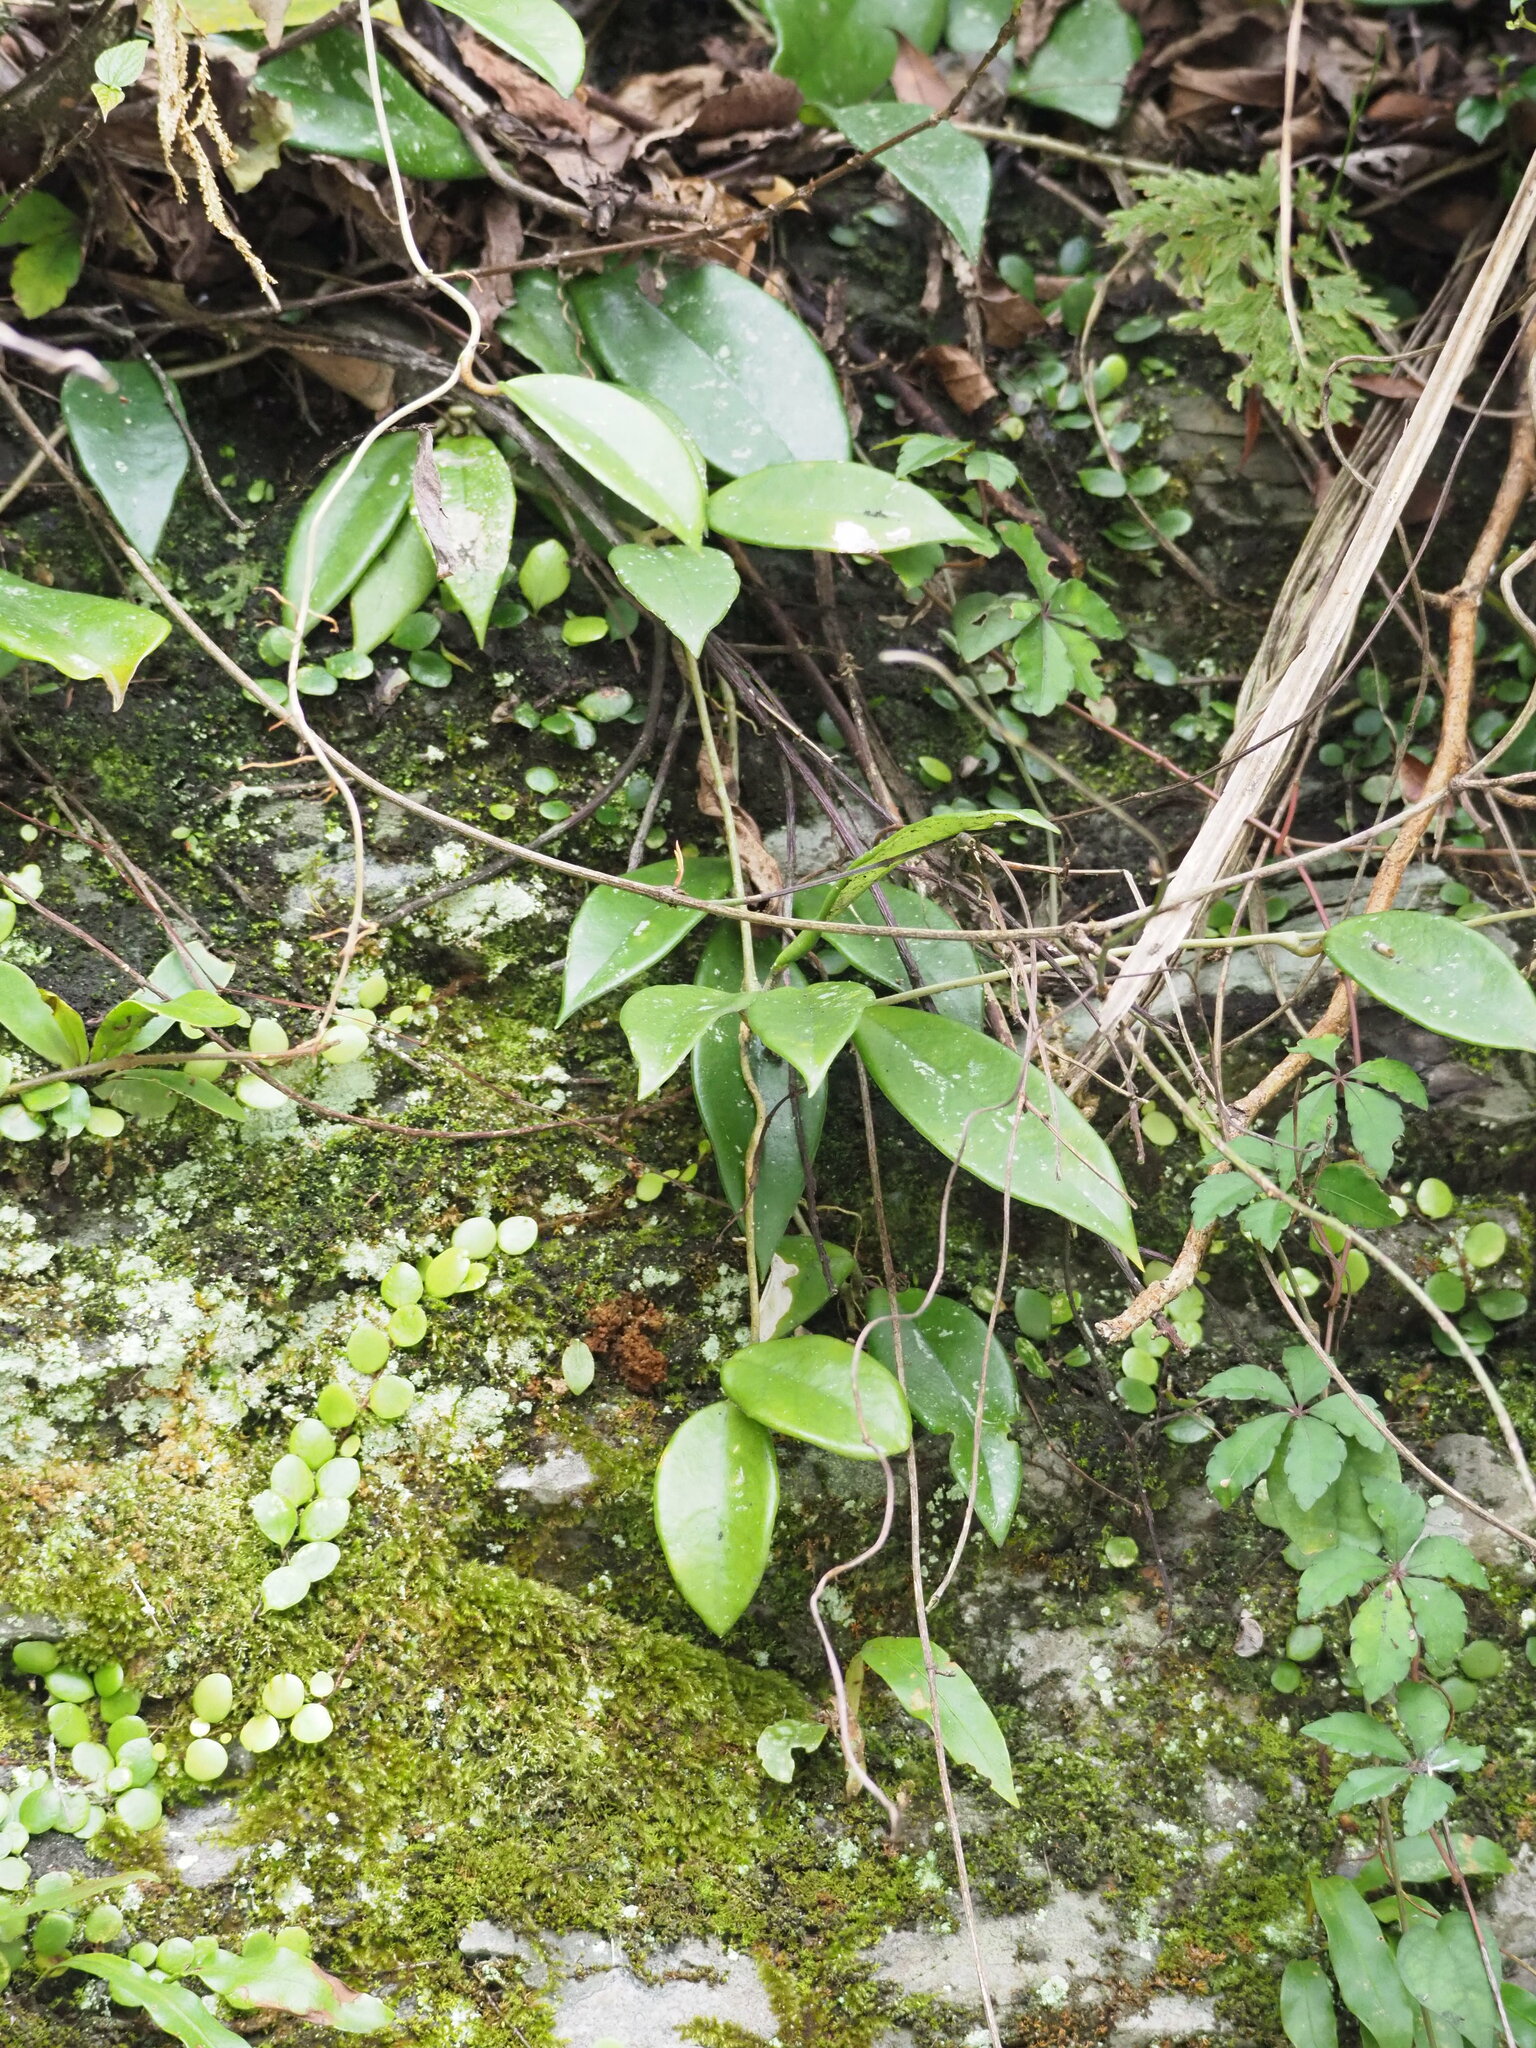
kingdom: Plantae
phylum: Tracheophyta
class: Magnoliopsida
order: Gentianales
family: Apocynaceae
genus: Hoya
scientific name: Hoya carnosa
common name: Honeyplant
